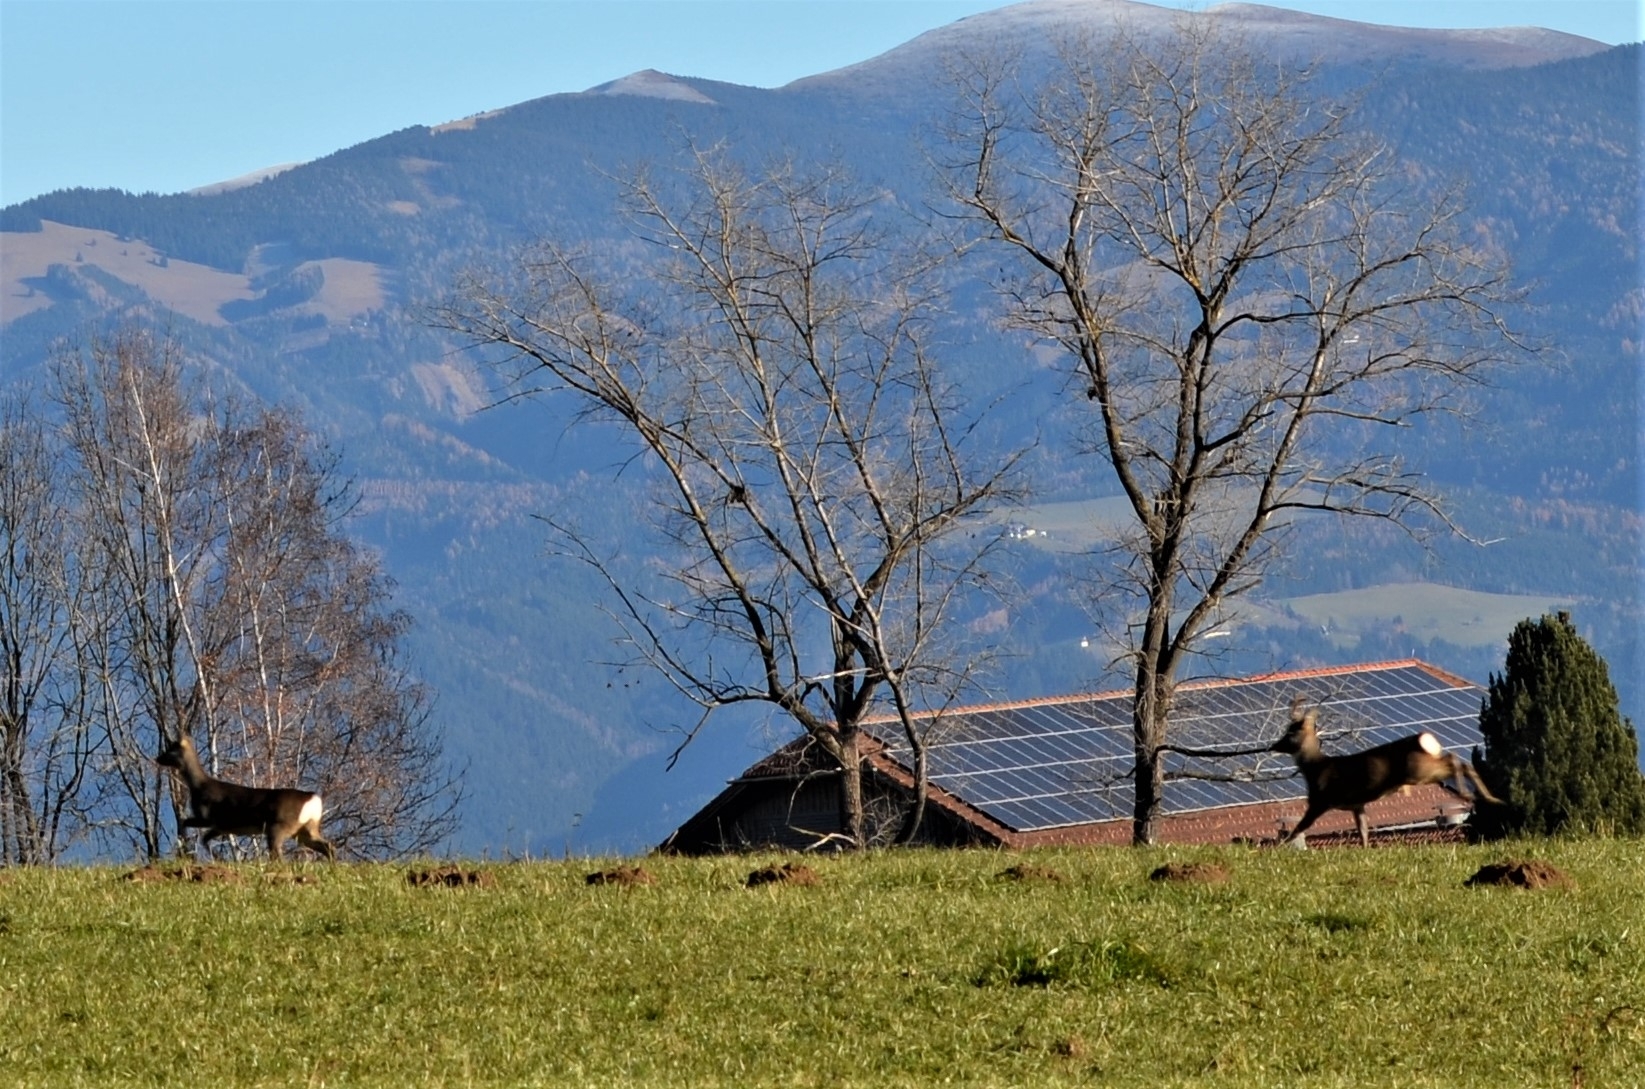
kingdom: Animalia
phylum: Chordata
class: Mammalia
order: Artiodactyla
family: Cervidae
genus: Capreolus
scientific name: Capreolus capreolus
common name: Western roe deer
